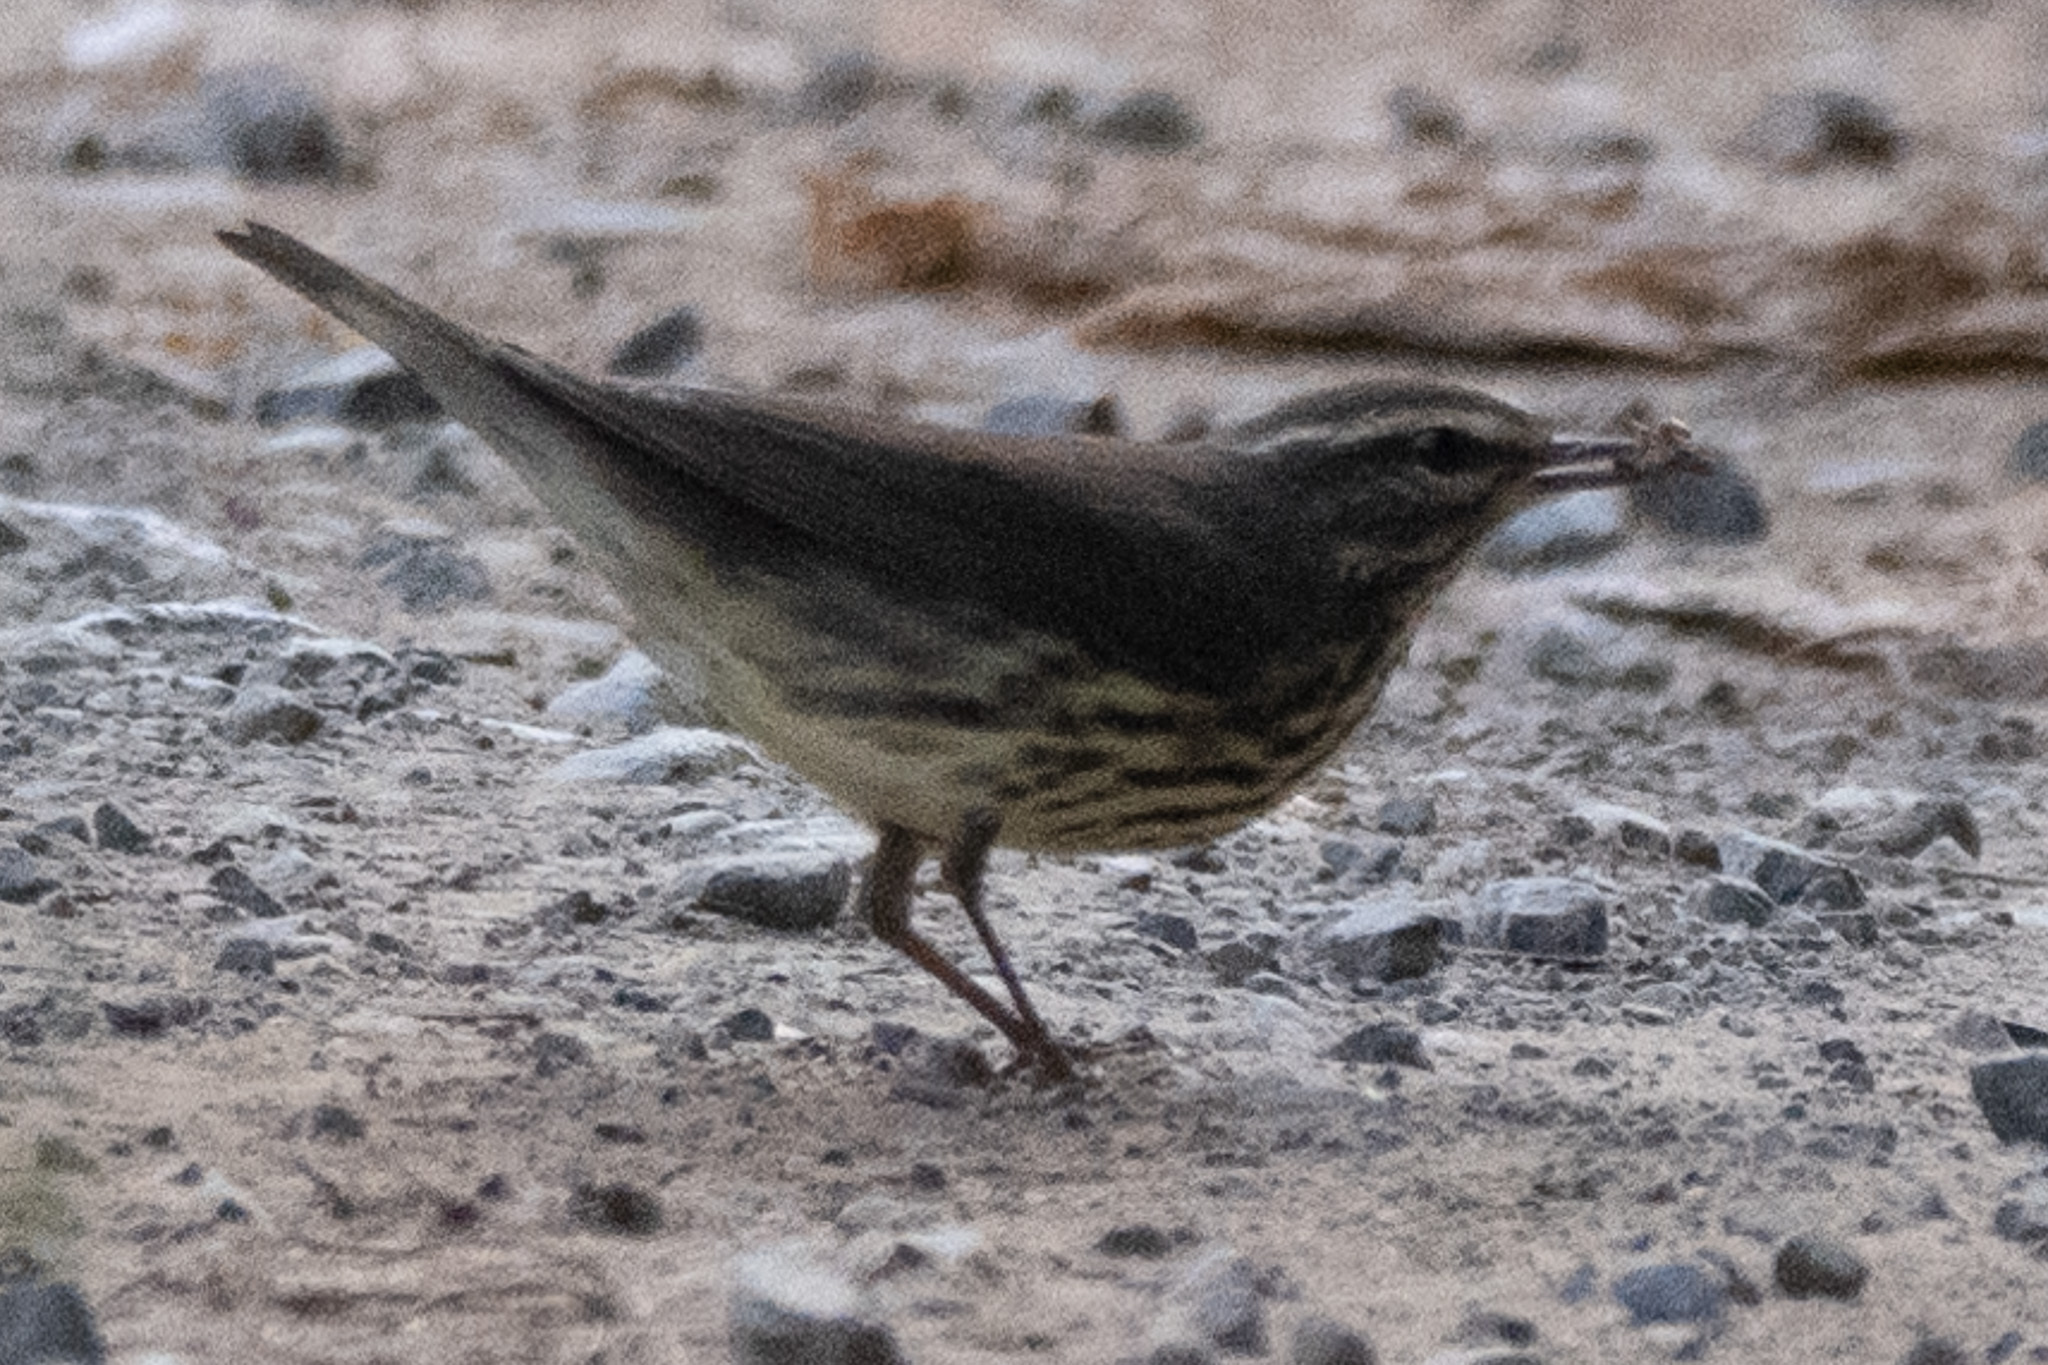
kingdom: Animalia
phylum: Chordata
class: Aves
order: Passeriformes
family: Parulidae
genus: Parkesia
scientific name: Parkesia noveboracensis
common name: Northern waterthrush
